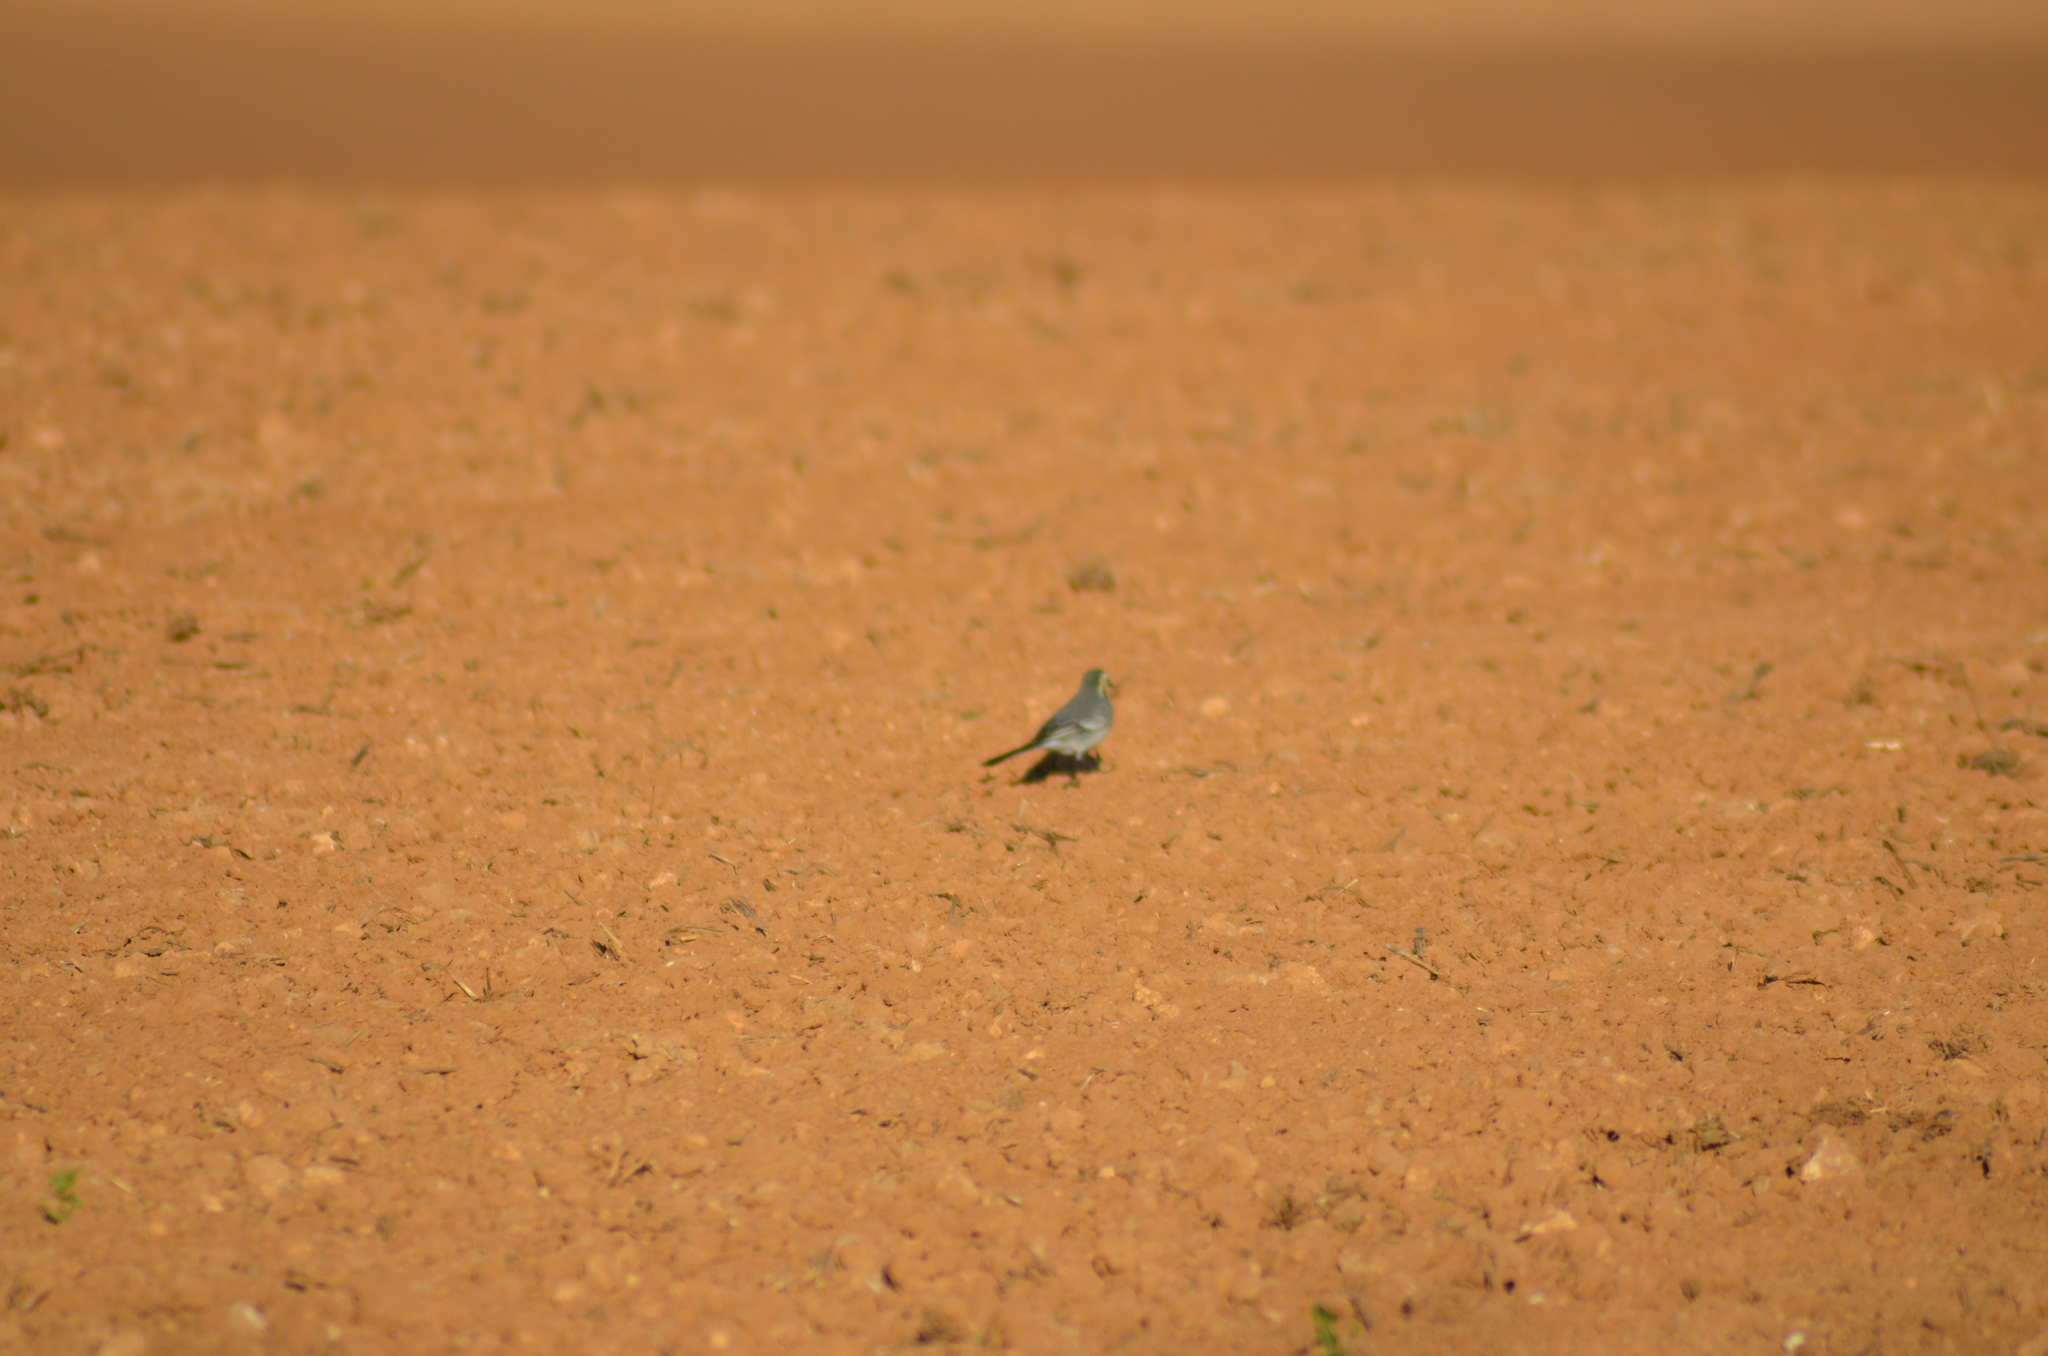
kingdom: Animalia
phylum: Chordata
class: Aves
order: Passeriformes
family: Motacillidae
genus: Motacilla
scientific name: Motacilla alba
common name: White wagtail
